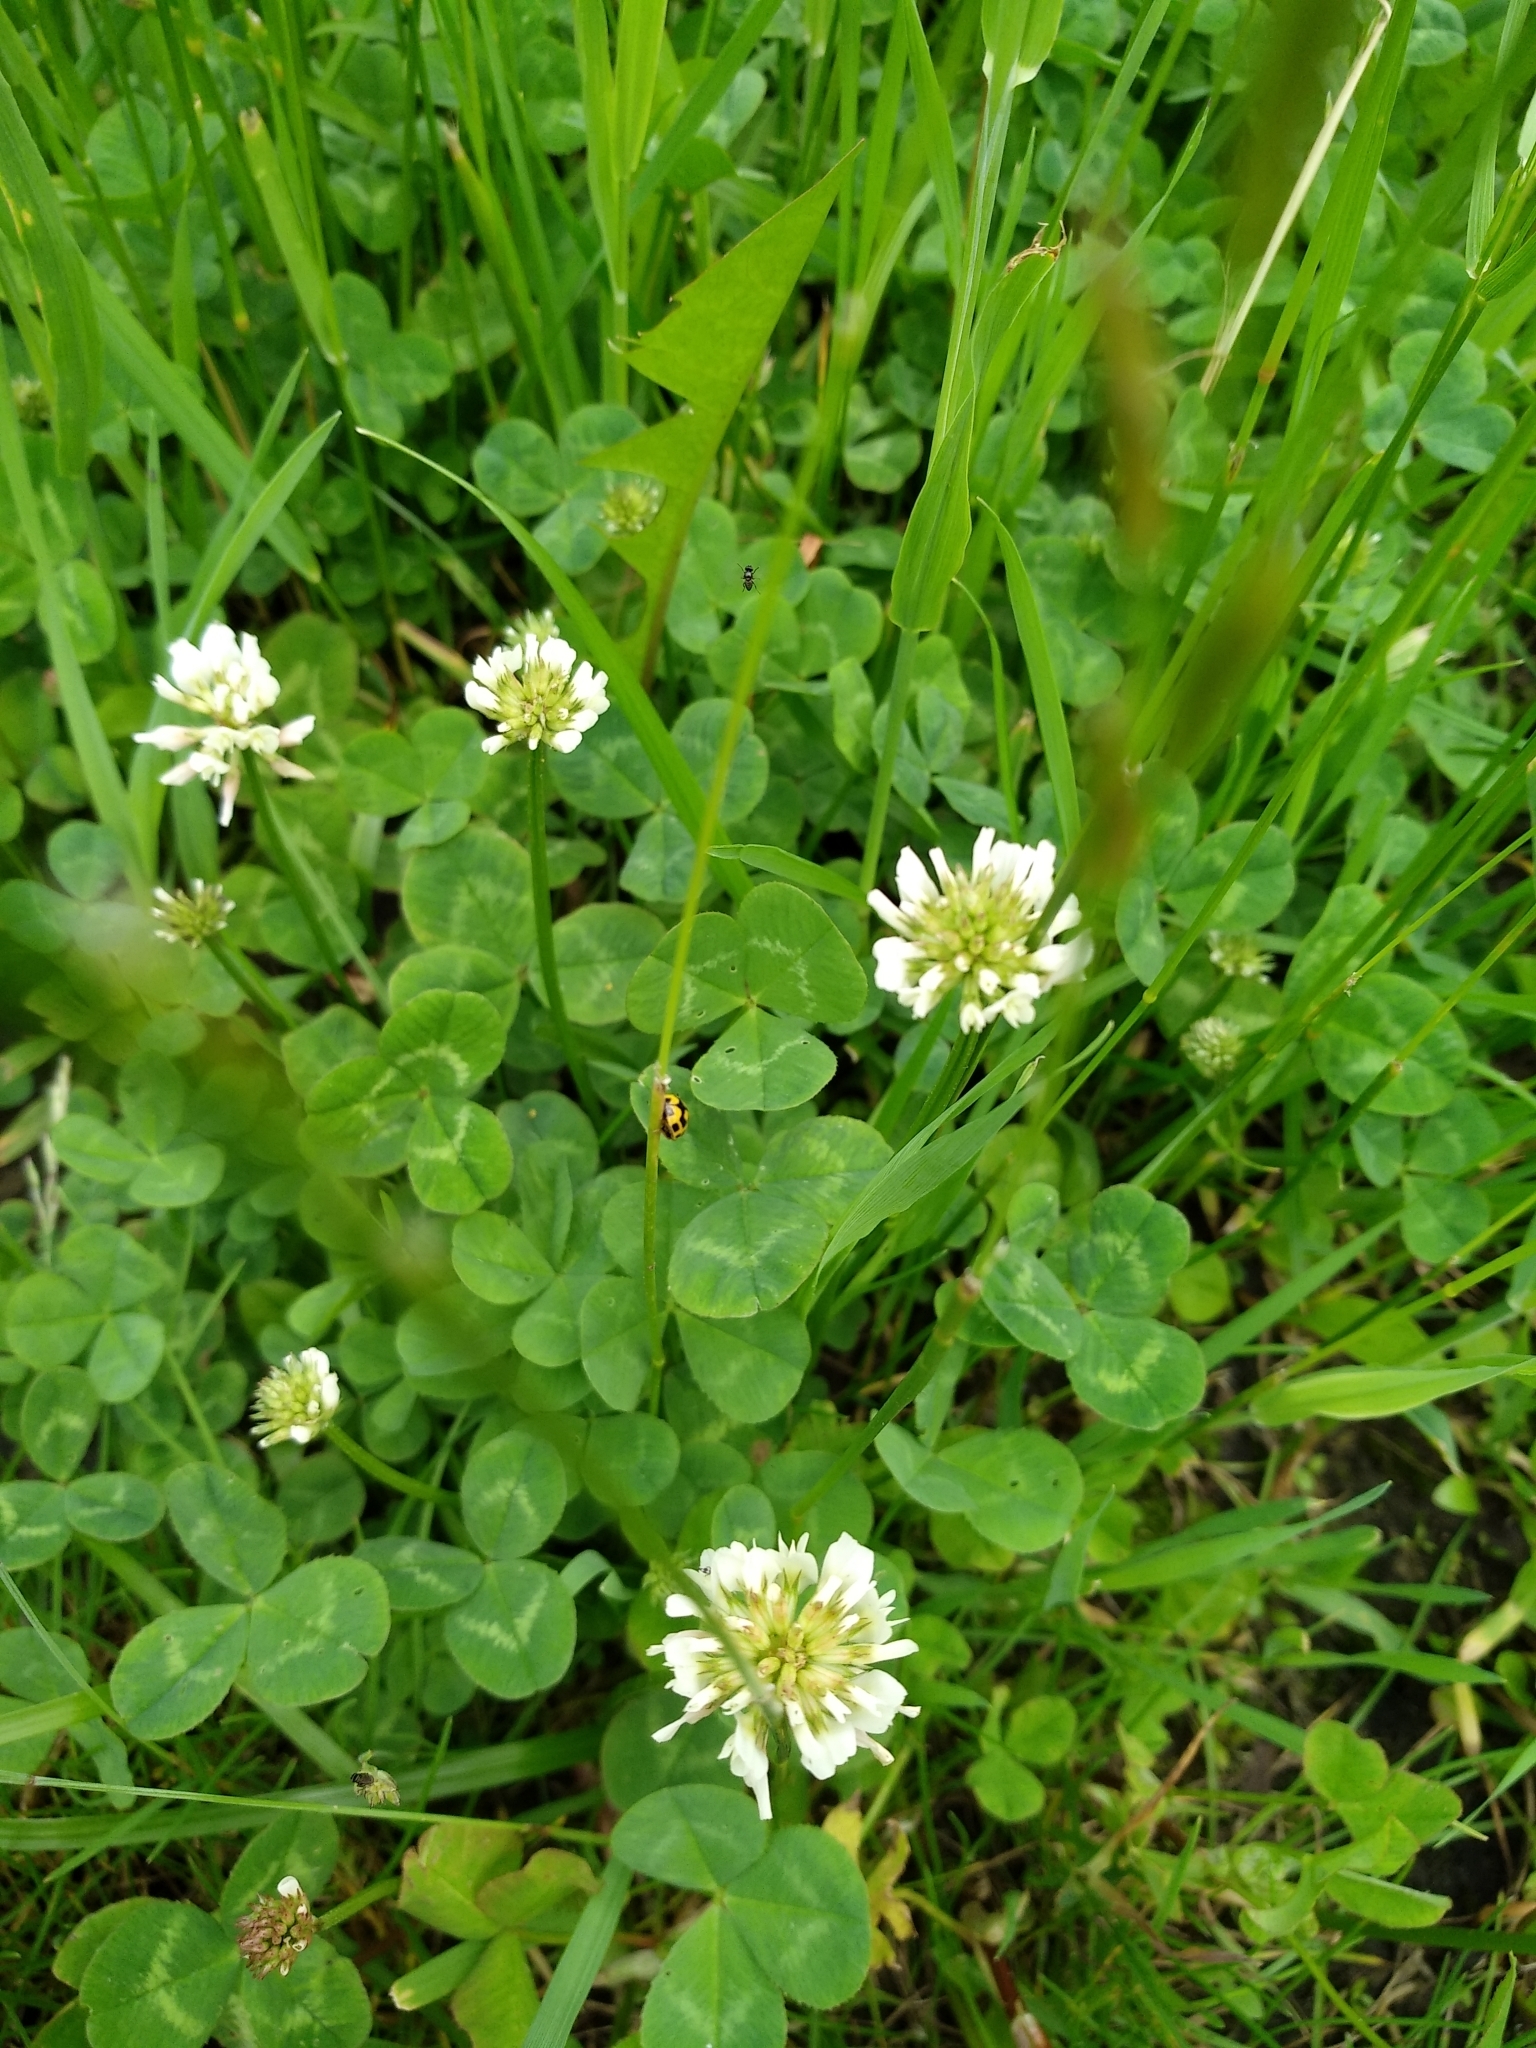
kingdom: Plantae
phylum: Tracheophyta
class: Magnoliopsida
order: Fabales
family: Fabaceae
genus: Trifolium
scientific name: Trifolium repens
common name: White clover
